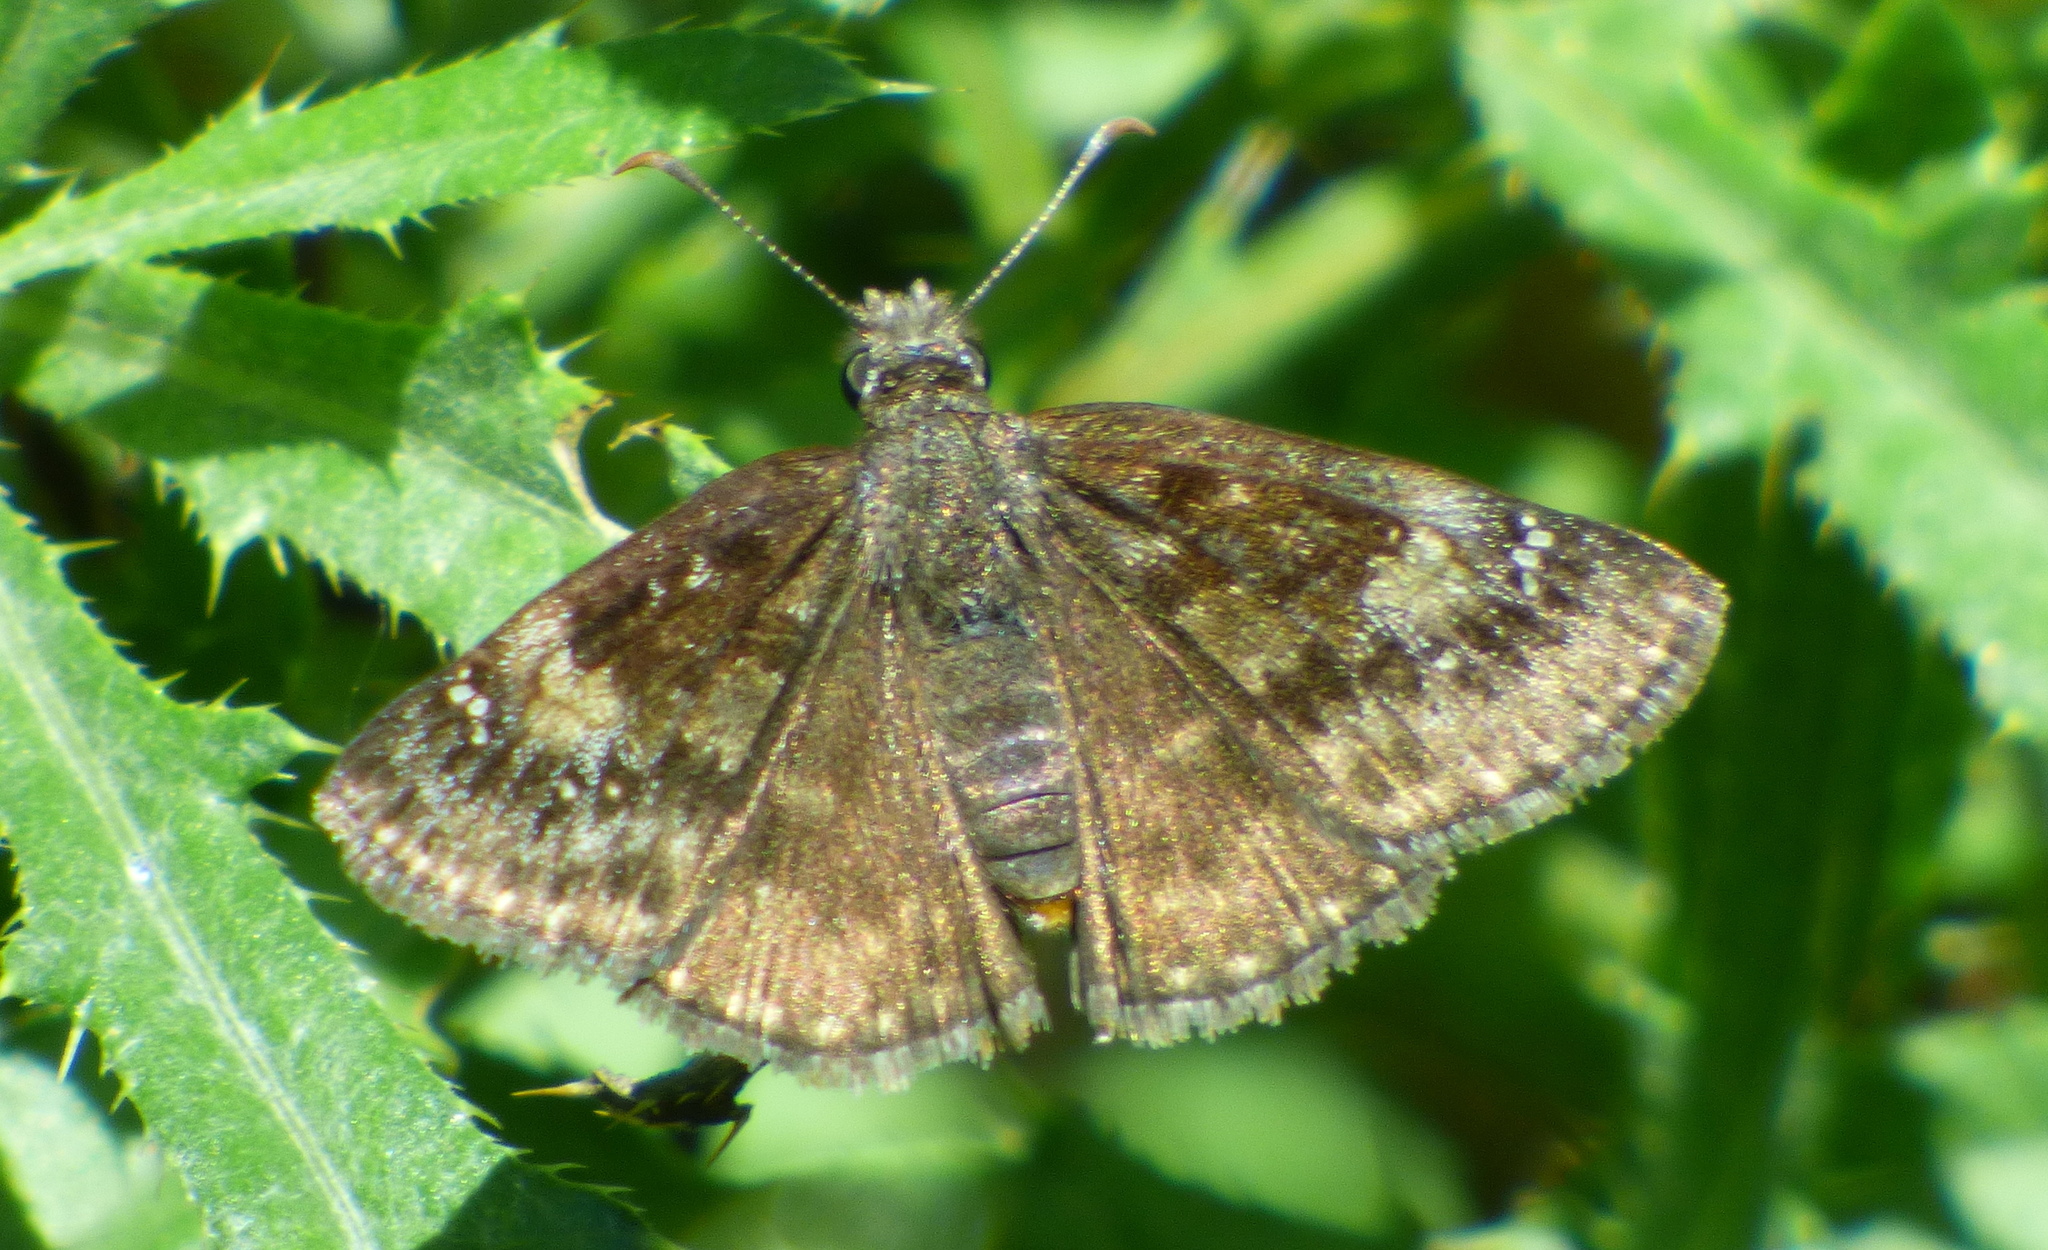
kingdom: Animalia
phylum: Arthropoda
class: Insecta
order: Lepidoptera
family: Hesperiidae
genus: Erynnis
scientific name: Erynnis baptisiae
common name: Wild indigo duskywing
